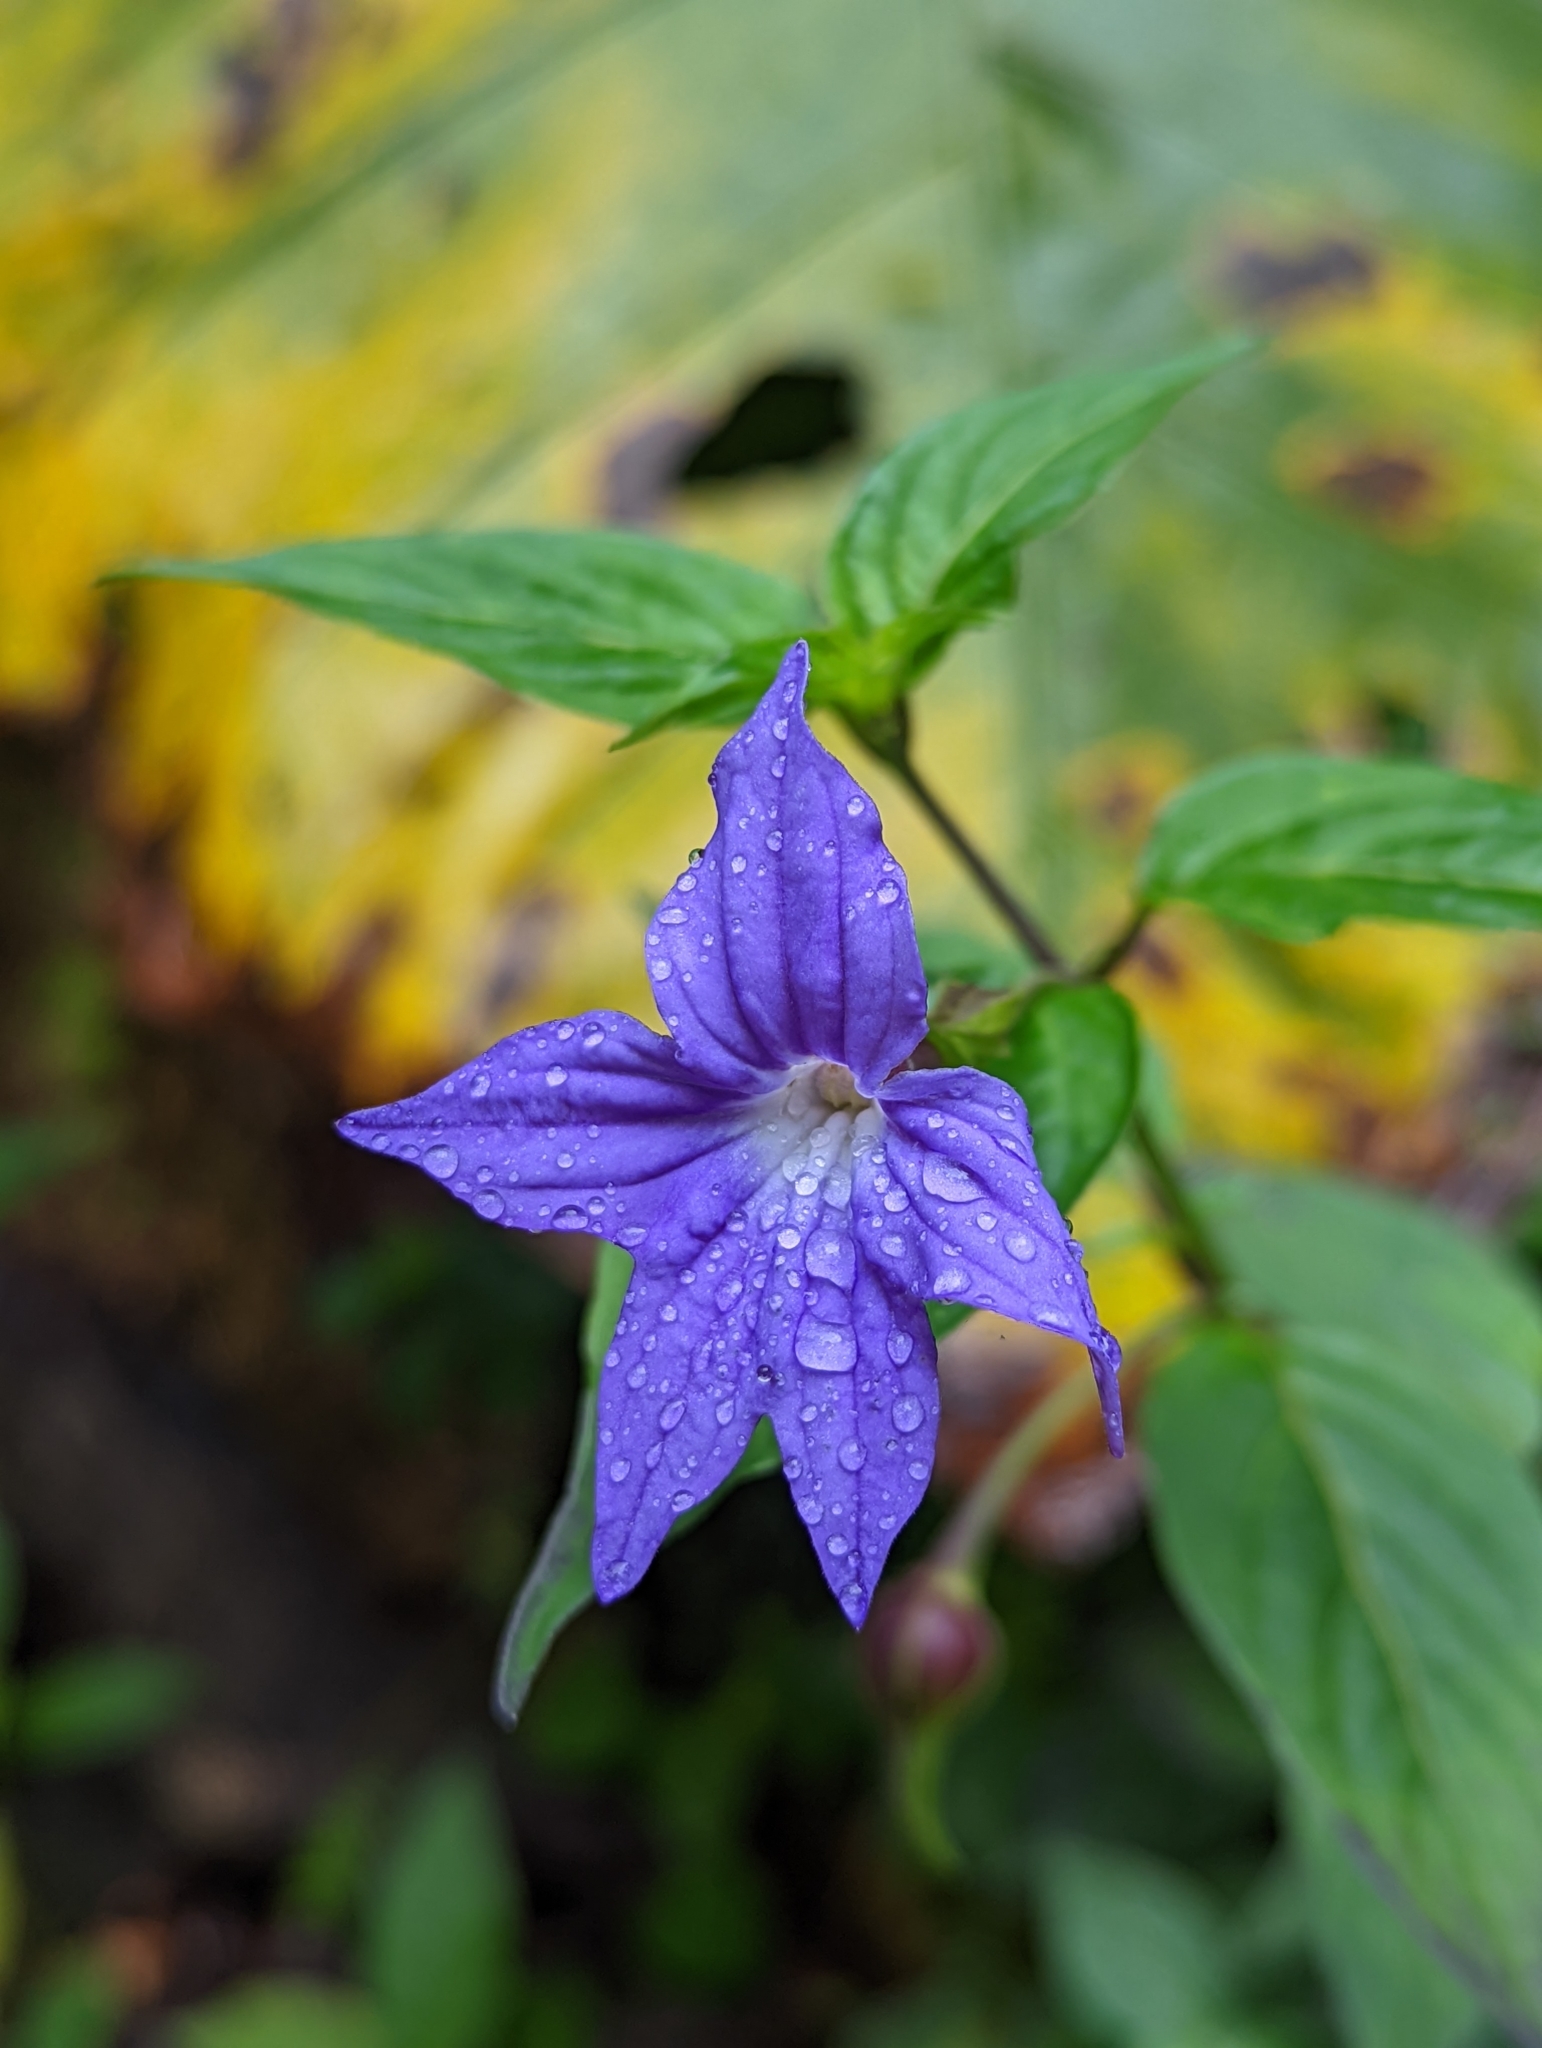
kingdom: Plantae
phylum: Tracheophyta
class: Magnoliopsida
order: Solanales
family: Solanaceae
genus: Browallia
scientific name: Browallia speciosa
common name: Bush-violet
